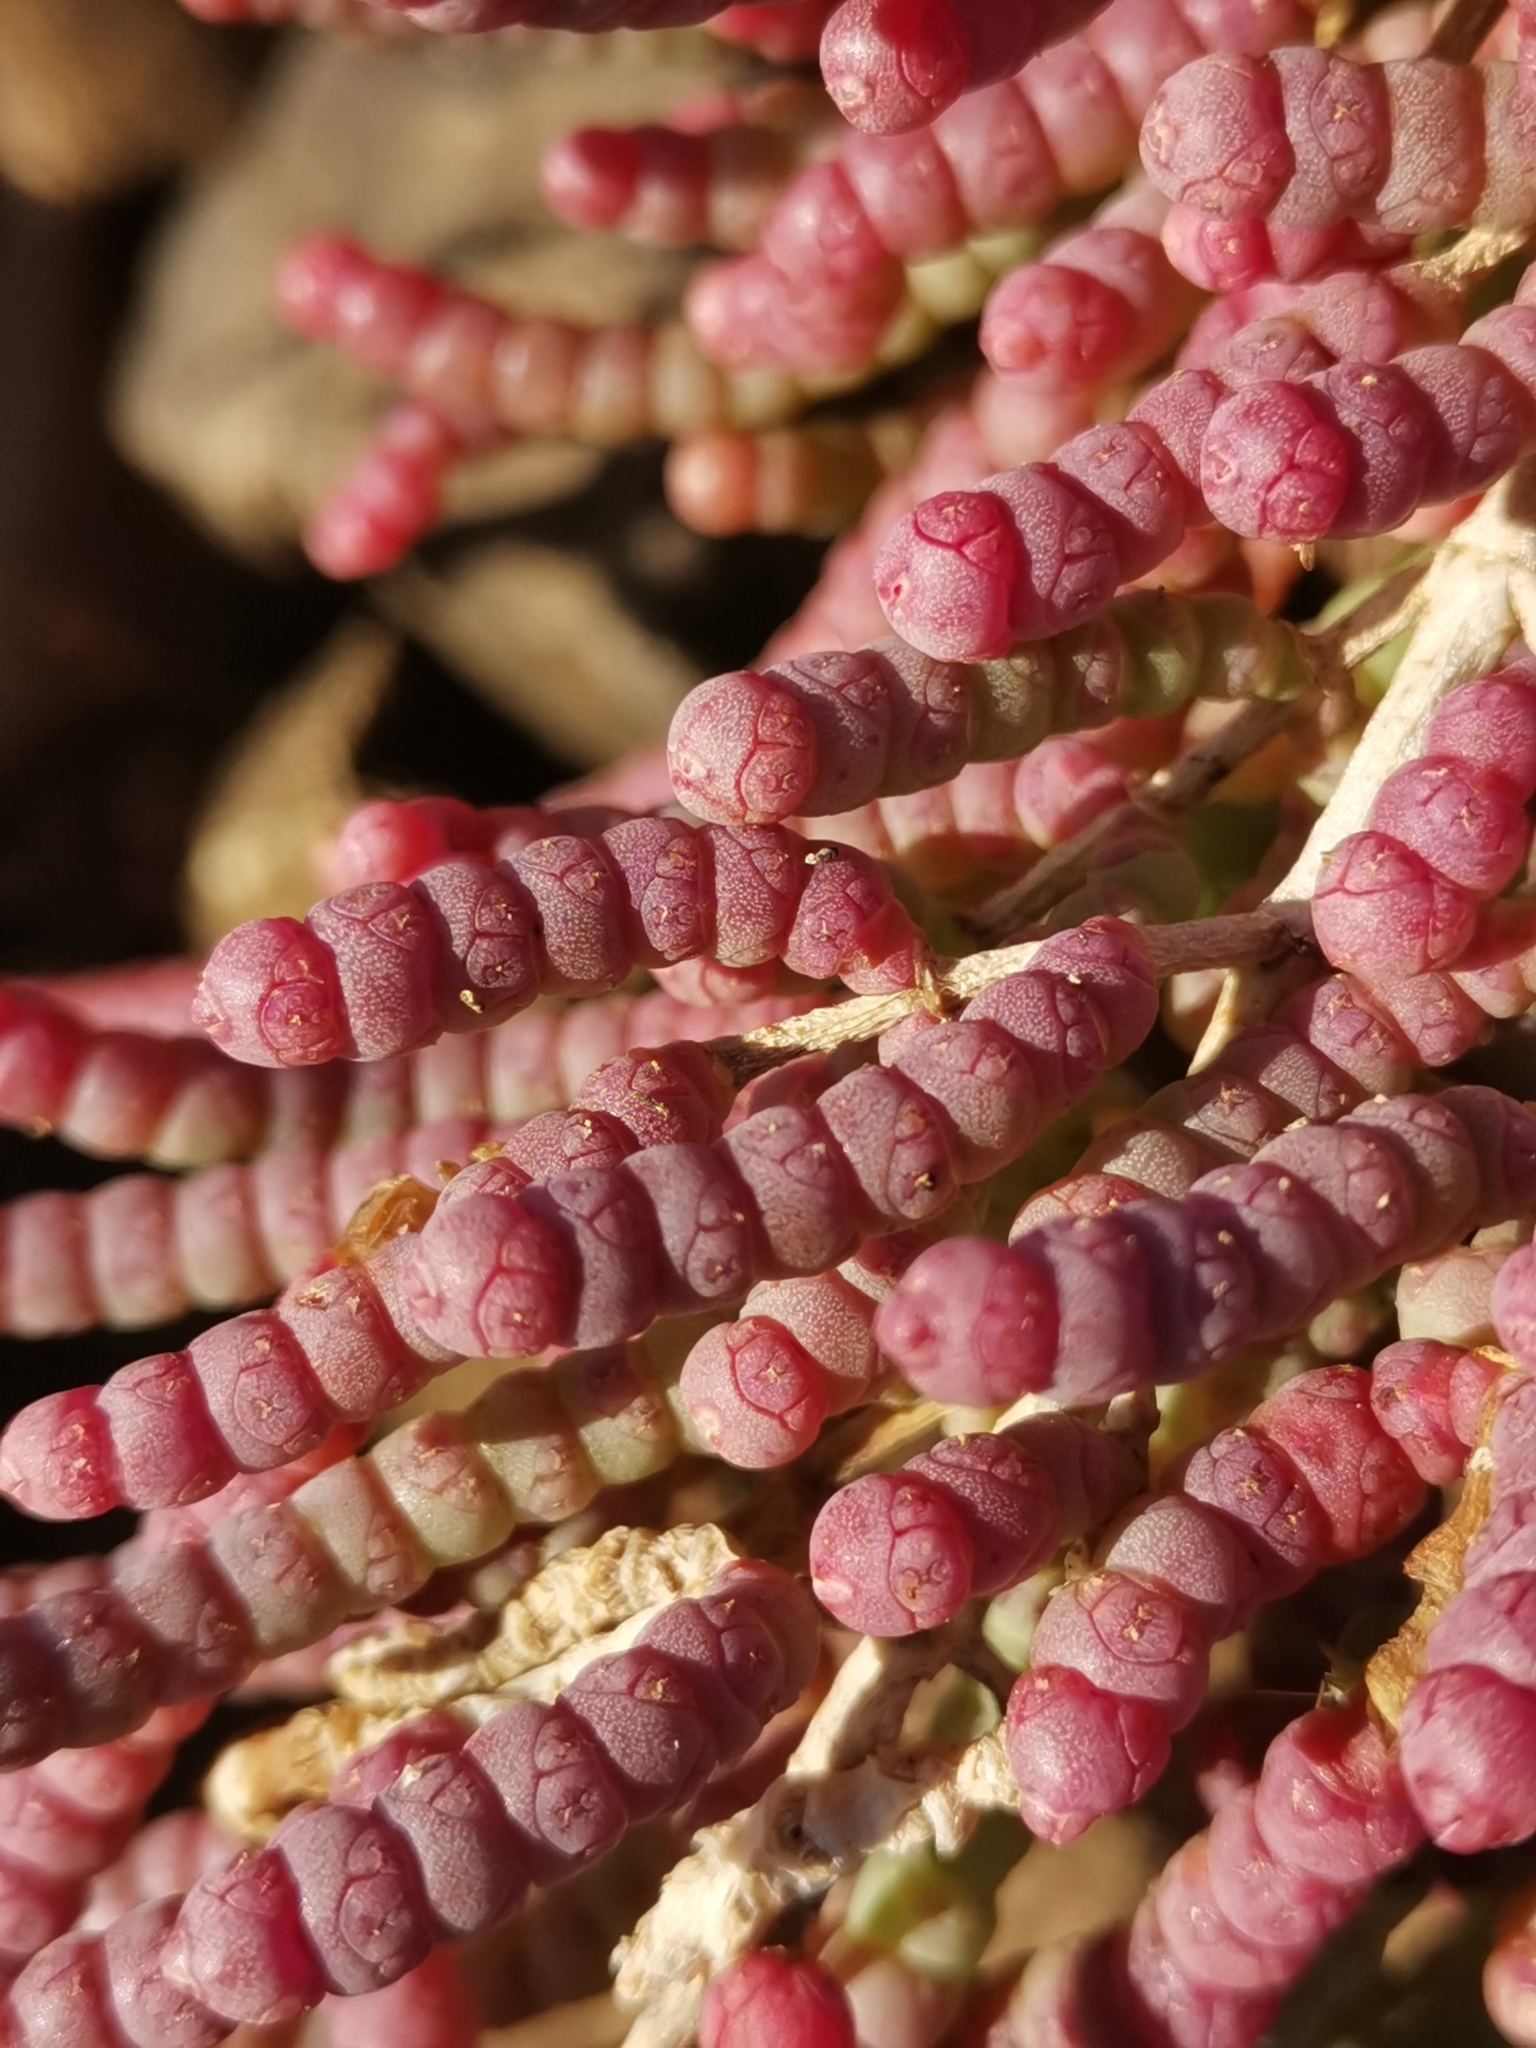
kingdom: Plantae
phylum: Tracheophyta
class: Magnoliopsida
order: Caryophyllales
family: Amaranthaceae
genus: Arthrocaulon
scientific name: Arthrocaulon macrostachyum
